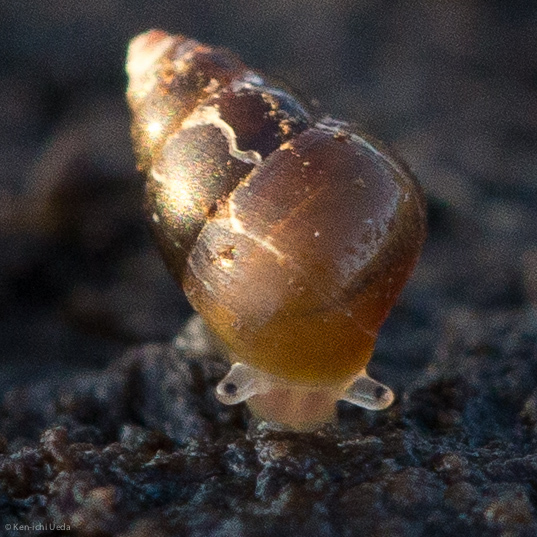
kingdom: Animalia
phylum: Mollusca
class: Gastropoda
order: Littorinimorpha
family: Assimineidae
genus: Angustassiminea
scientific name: Angustassiminea californica
